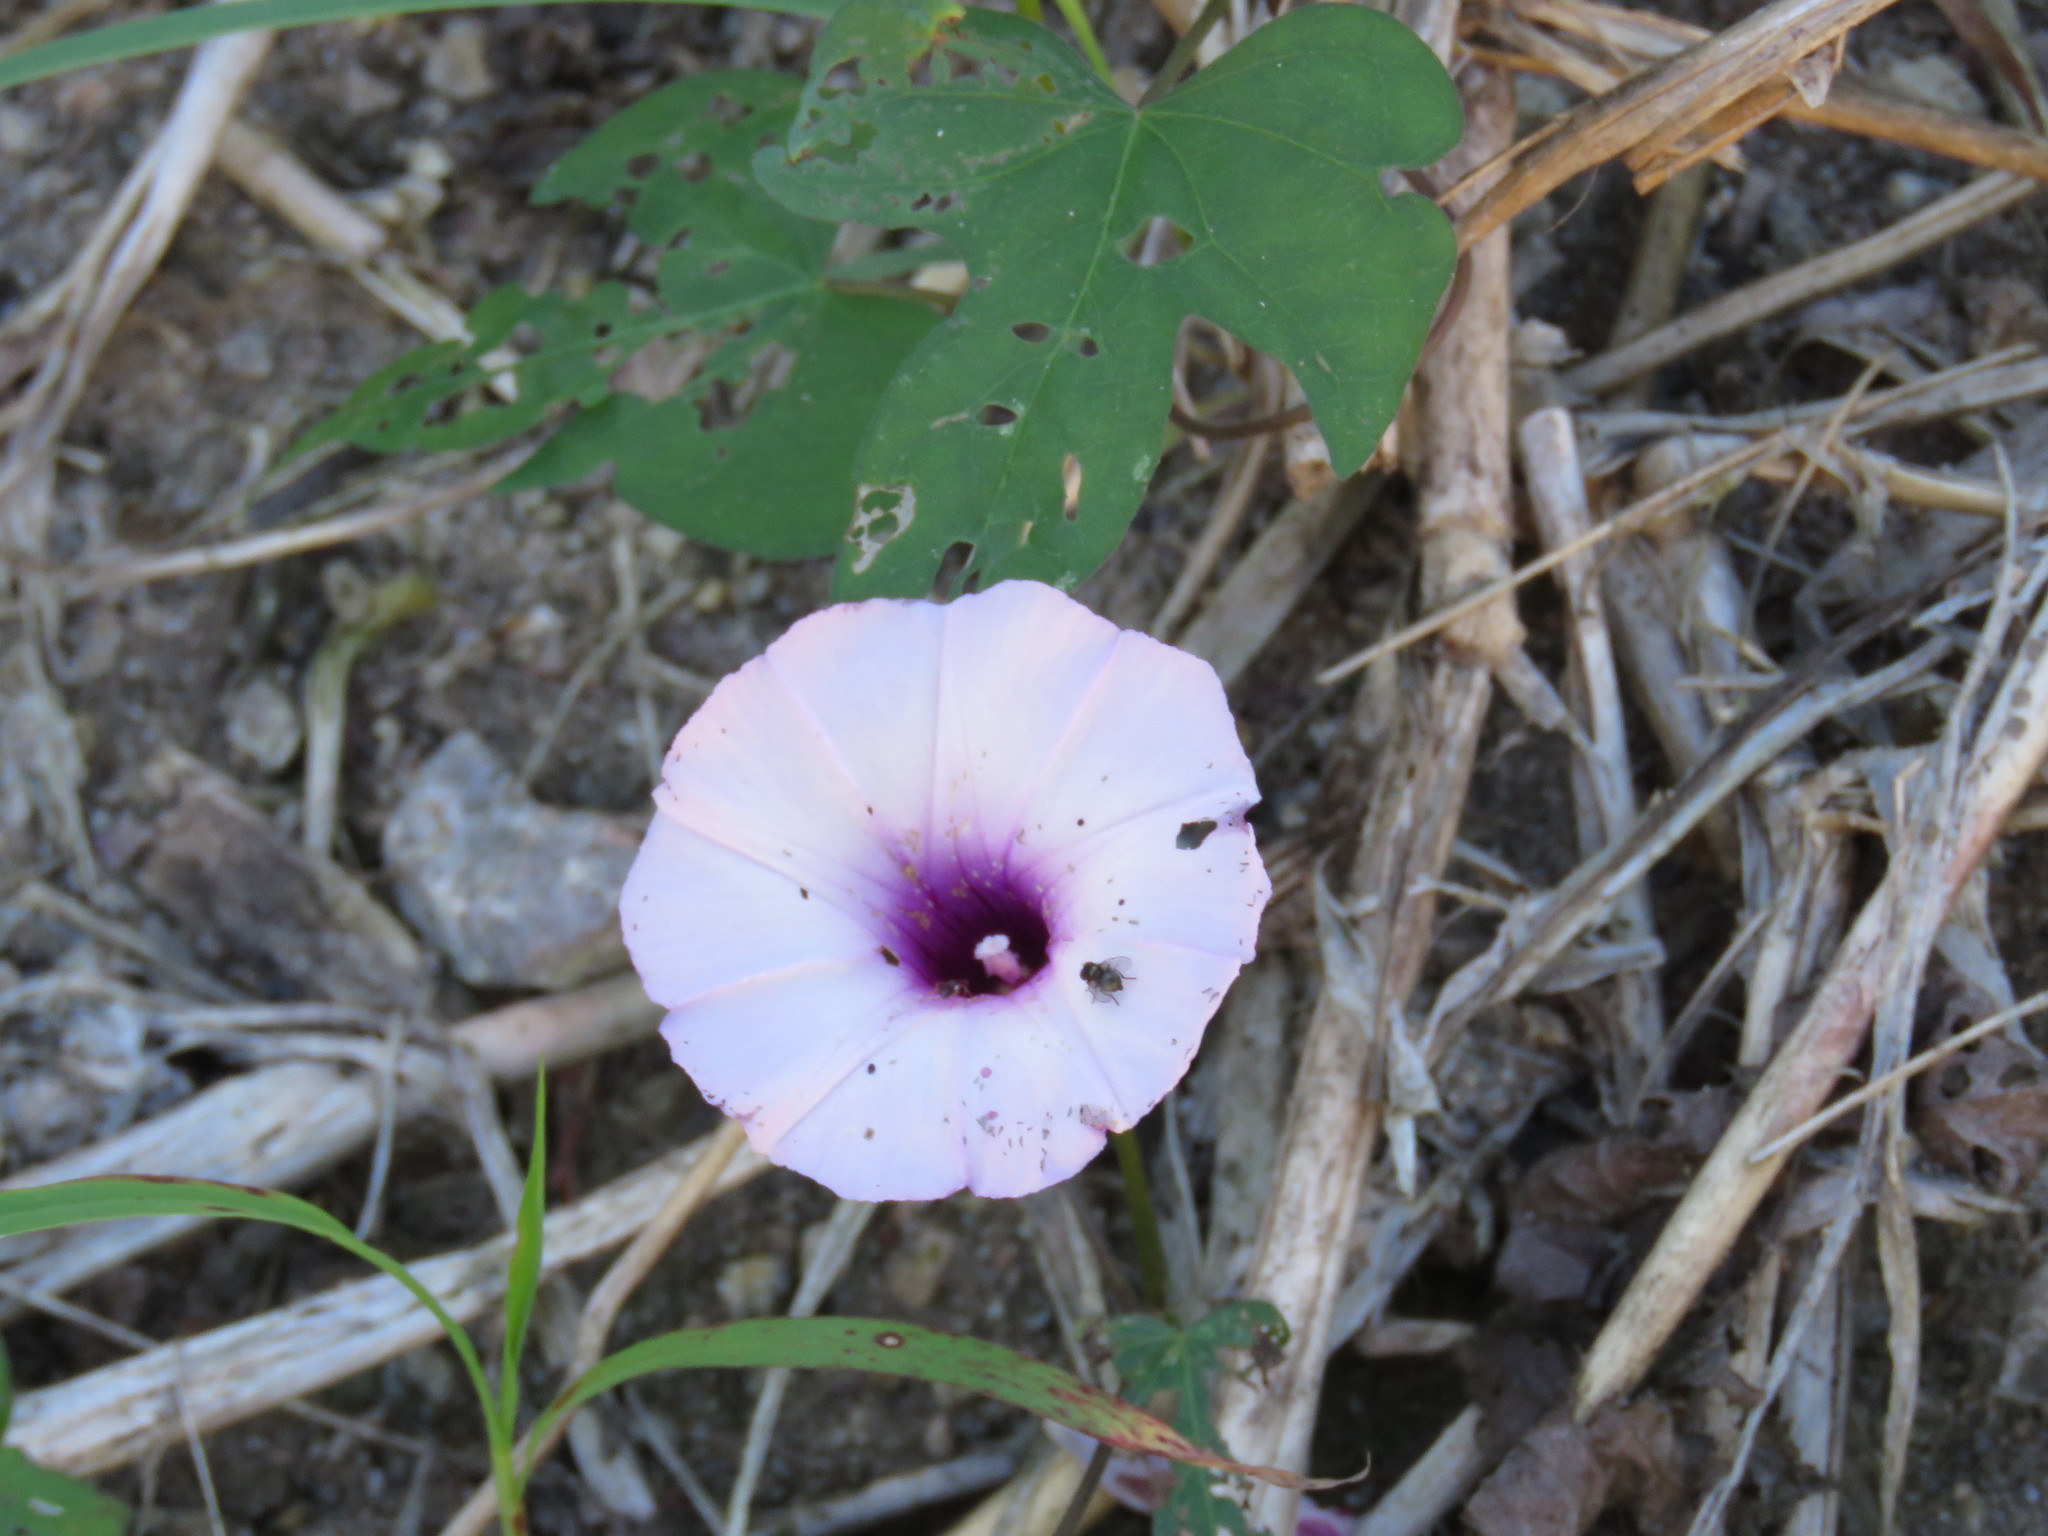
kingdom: Plantae
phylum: Tracheophyta
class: Magnoliopsida
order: Solanales
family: Convolvulaceae
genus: Ipomoea
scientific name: Ipomoea batatas
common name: Sweet-potato
